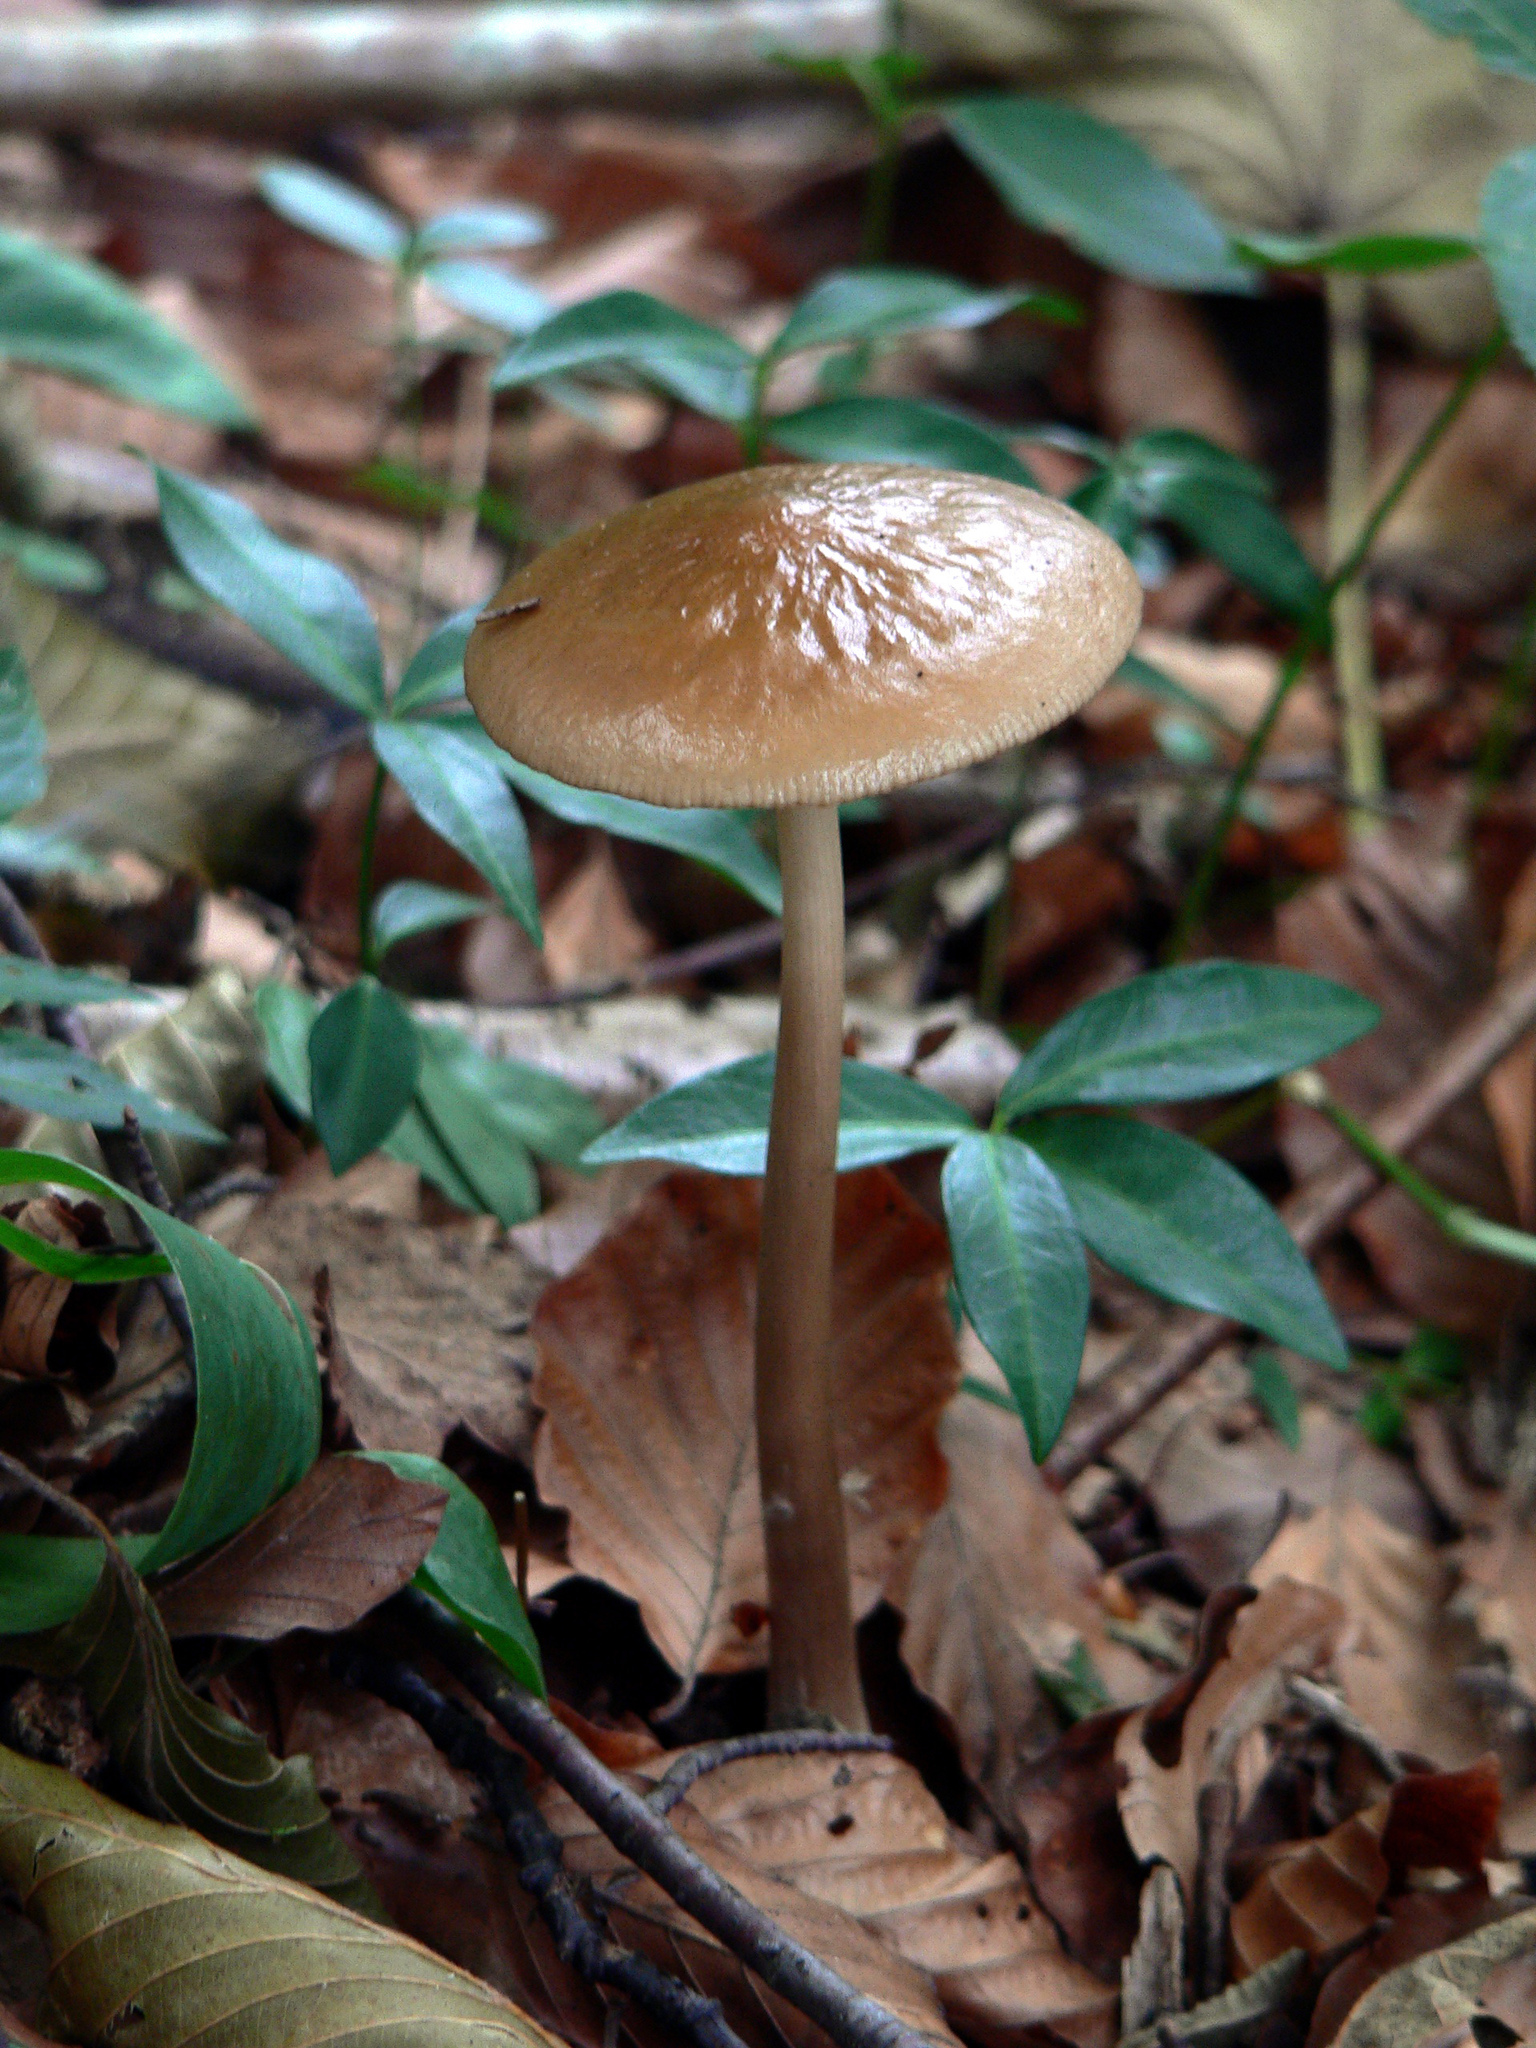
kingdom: Fungi
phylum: Basidiomycota
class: Agaricomycetes
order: Agaricales
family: Physalacriaceae
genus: Hymenopellis
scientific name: Hymenopellis radicata
